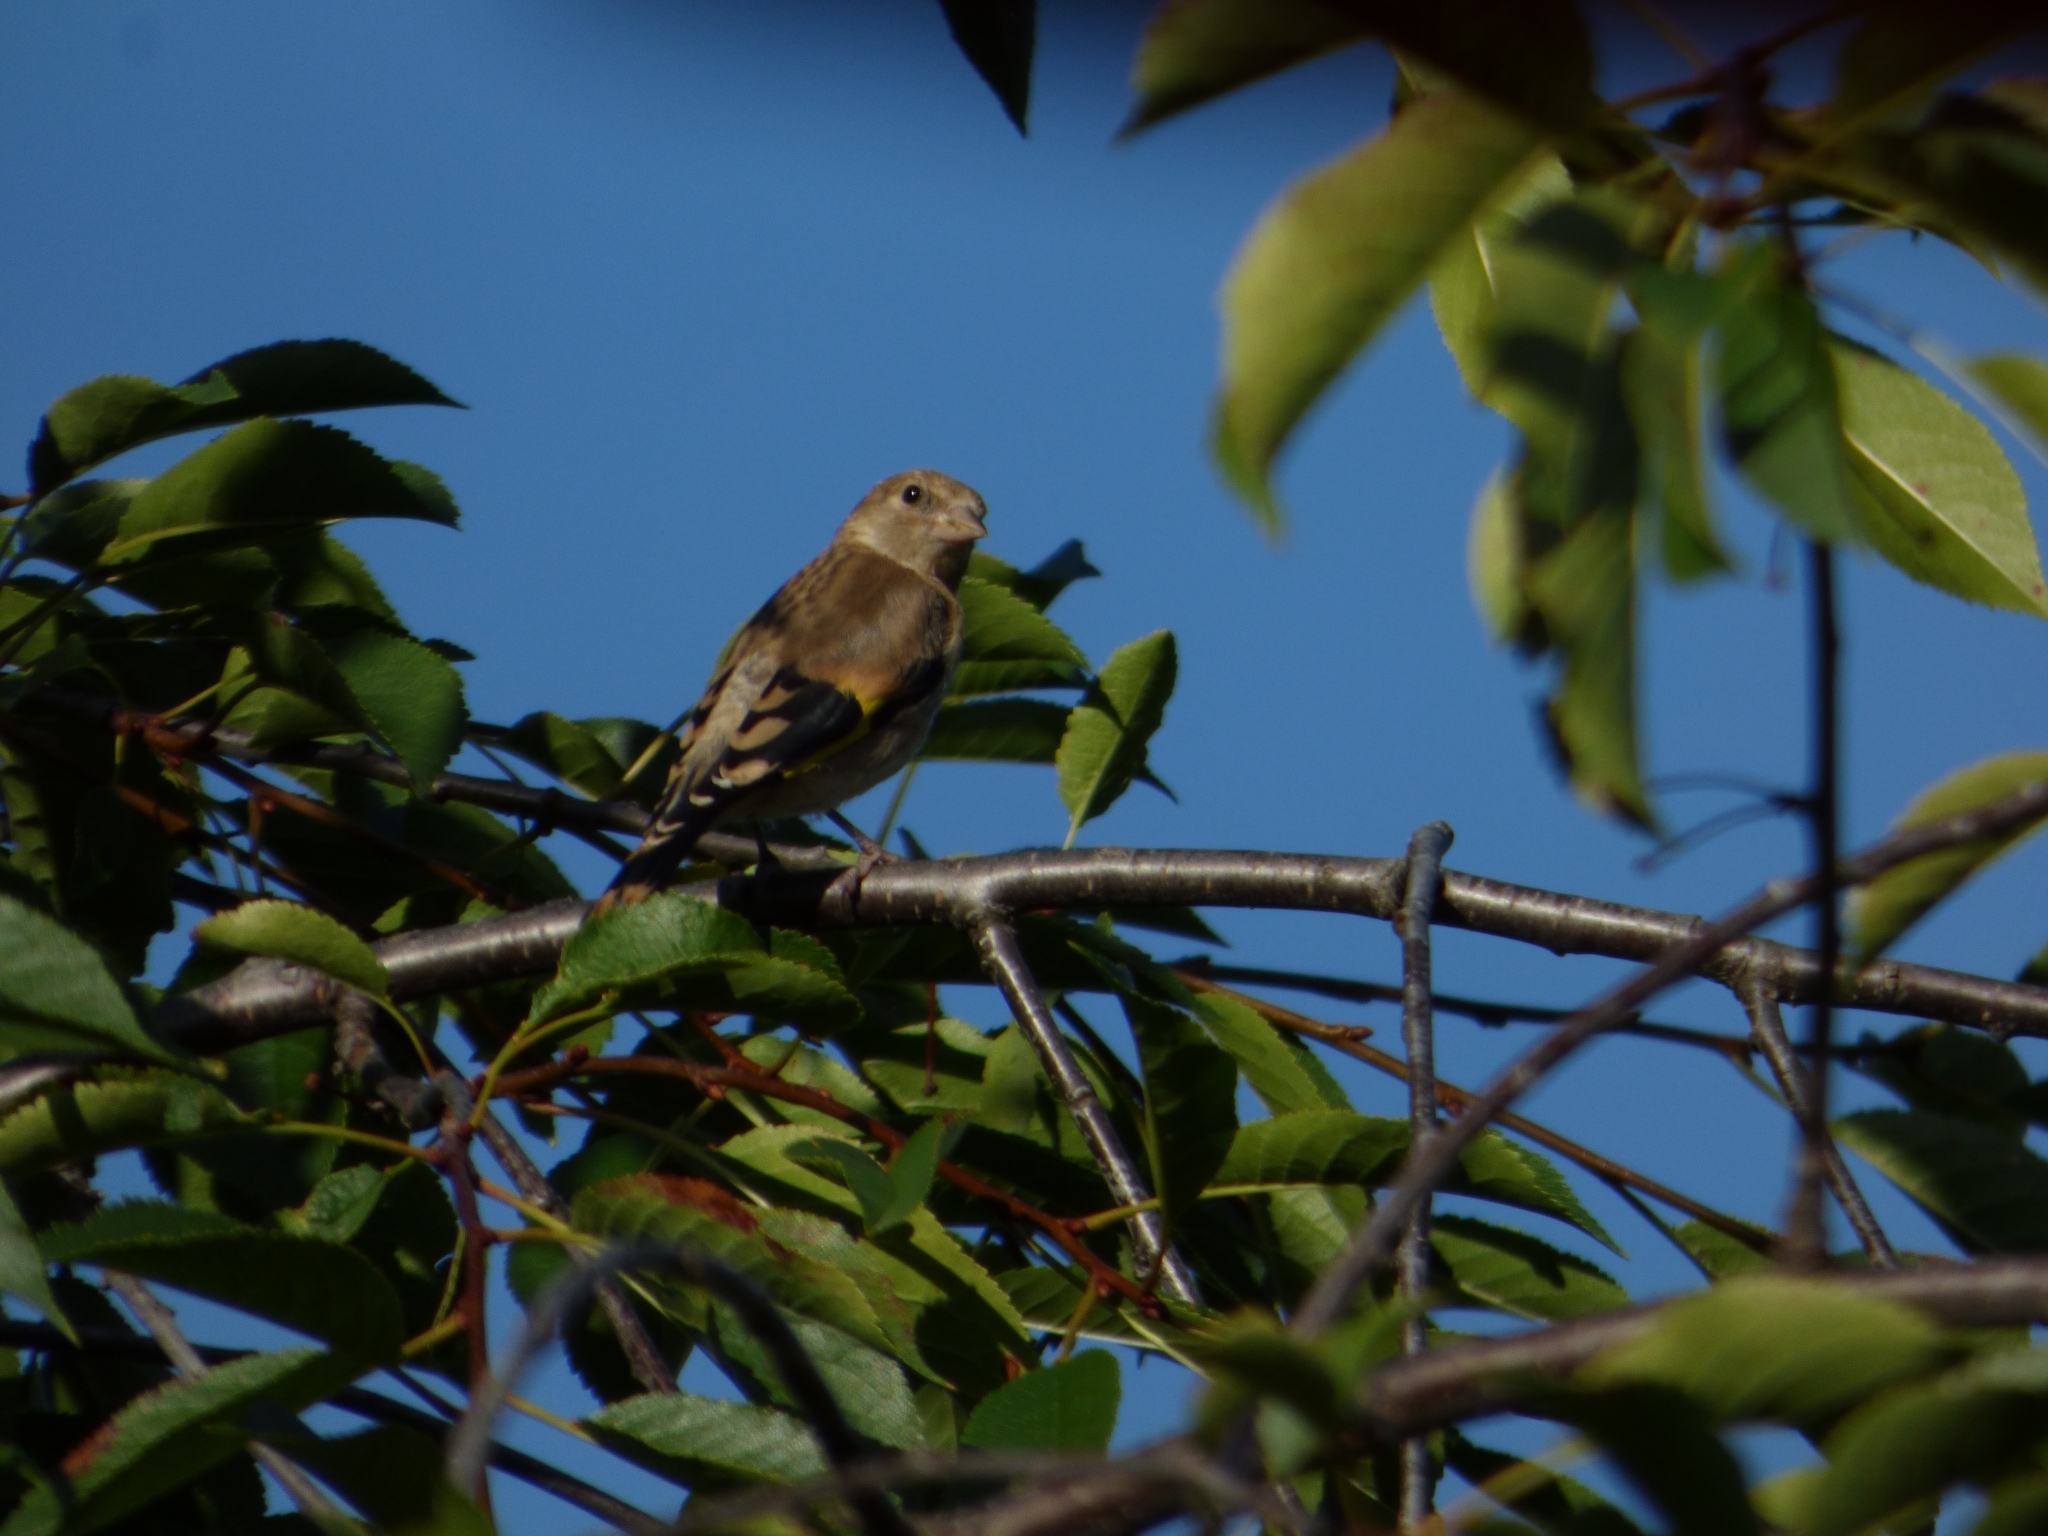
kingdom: Animalia
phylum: Chordata
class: Aves
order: Passeriformes
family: Fringillidae
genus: Carduelis
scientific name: Carduelis carduelis
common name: European goldfinch
